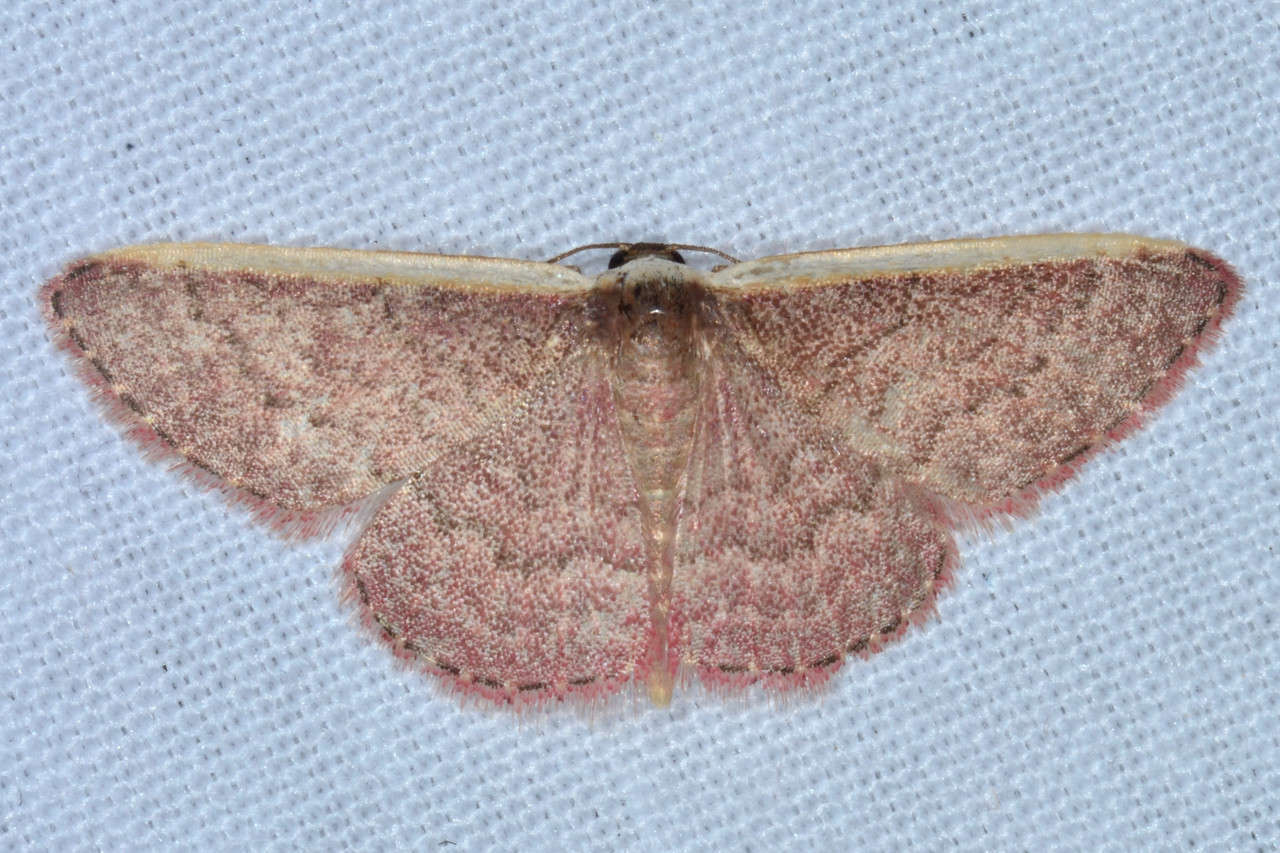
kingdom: Animalia
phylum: Arthropoda
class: Insecta
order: Lepidoptera
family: Geometridae
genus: Idaea
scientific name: Idaea inversata
